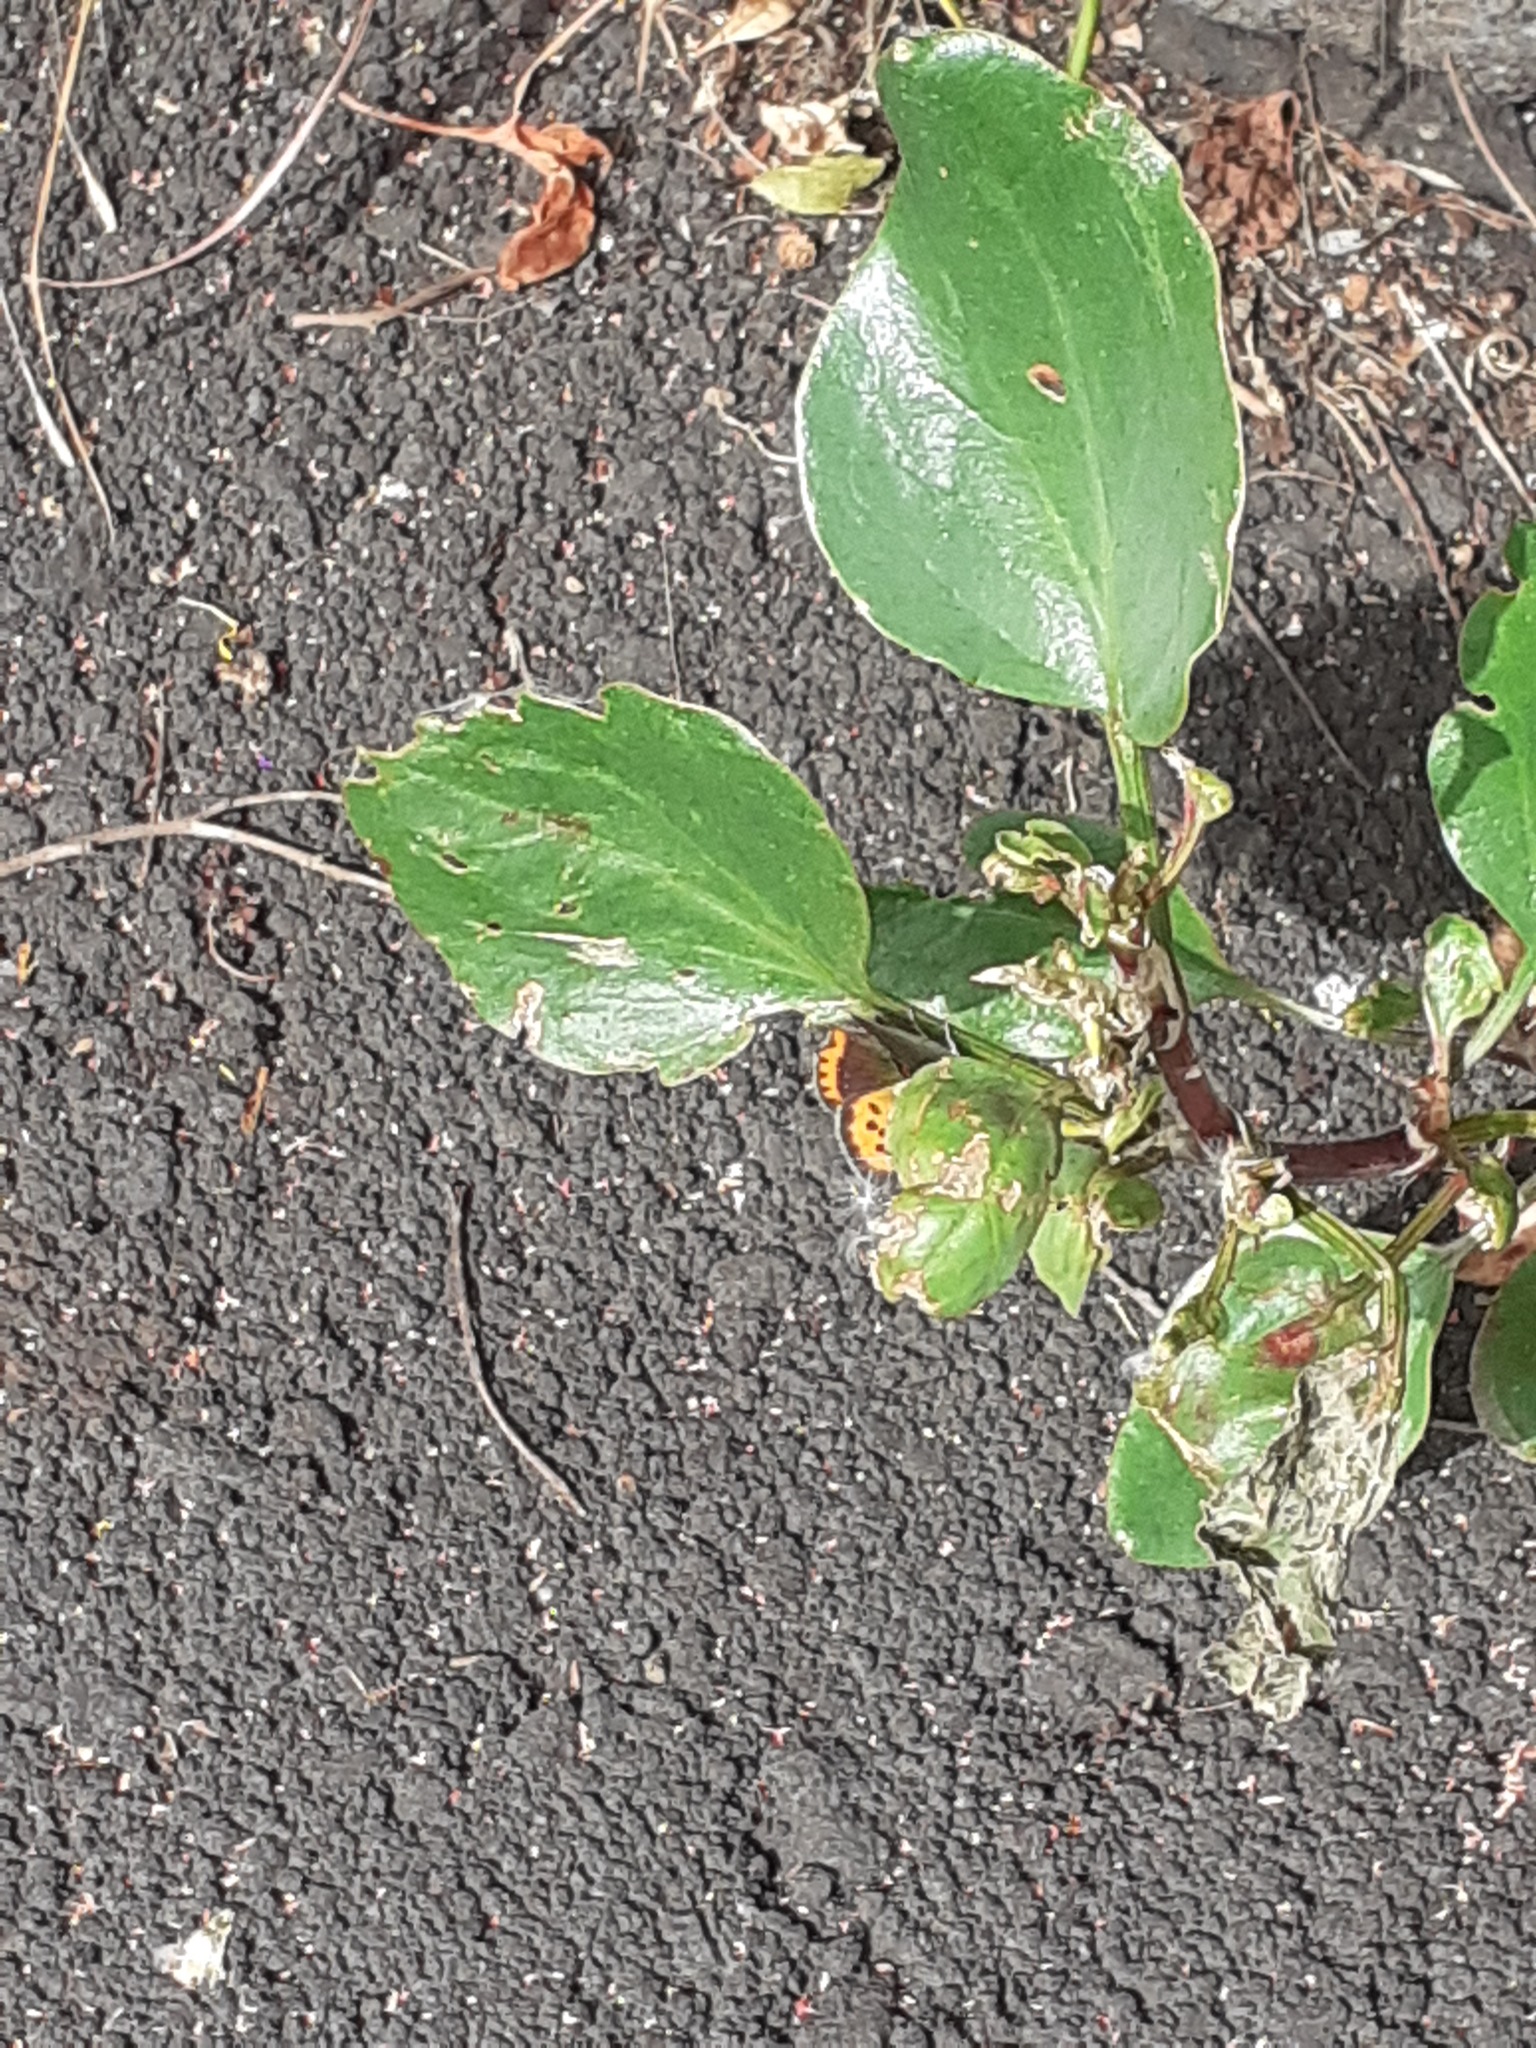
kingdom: Animalia
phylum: Arthropoda
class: Insecta
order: Lepidoptera
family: Lycaenidae
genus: Lycaena
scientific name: Lycaena phlaeas
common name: Small copper
